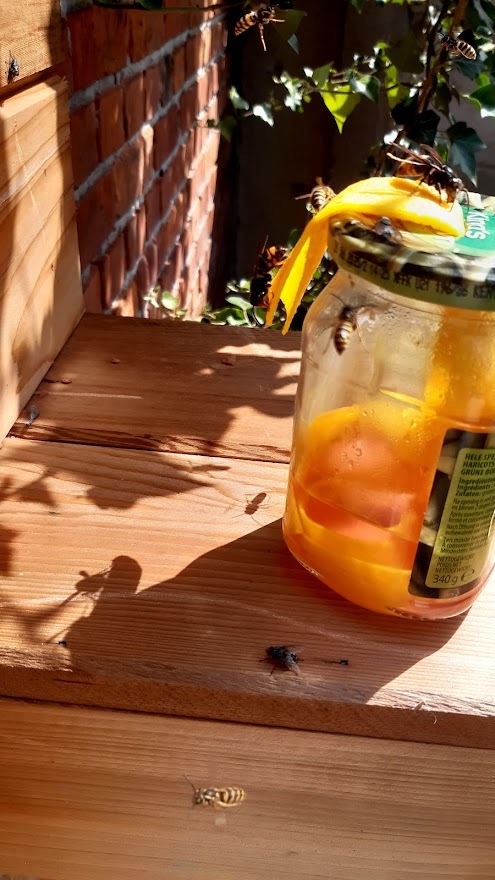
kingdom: Animalia
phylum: Arthropoda
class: Insecta
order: Hymenoptera
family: Vespidae
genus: Vespa
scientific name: Vespa velutina
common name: Asian hornet
